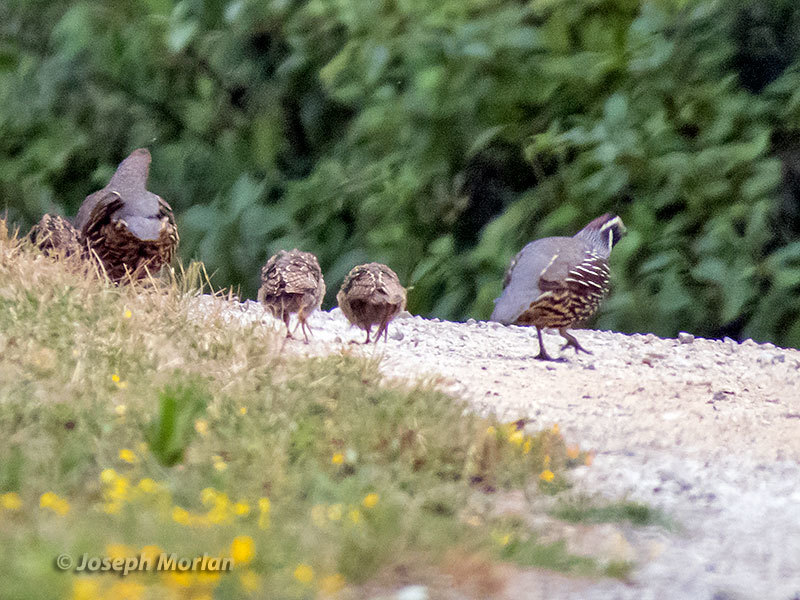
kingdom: Animalia
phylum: Chordata
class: Aves
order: Galliformes
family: Odontophoridae
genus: Callipepla
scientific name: Callipepla californica
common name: California quail
